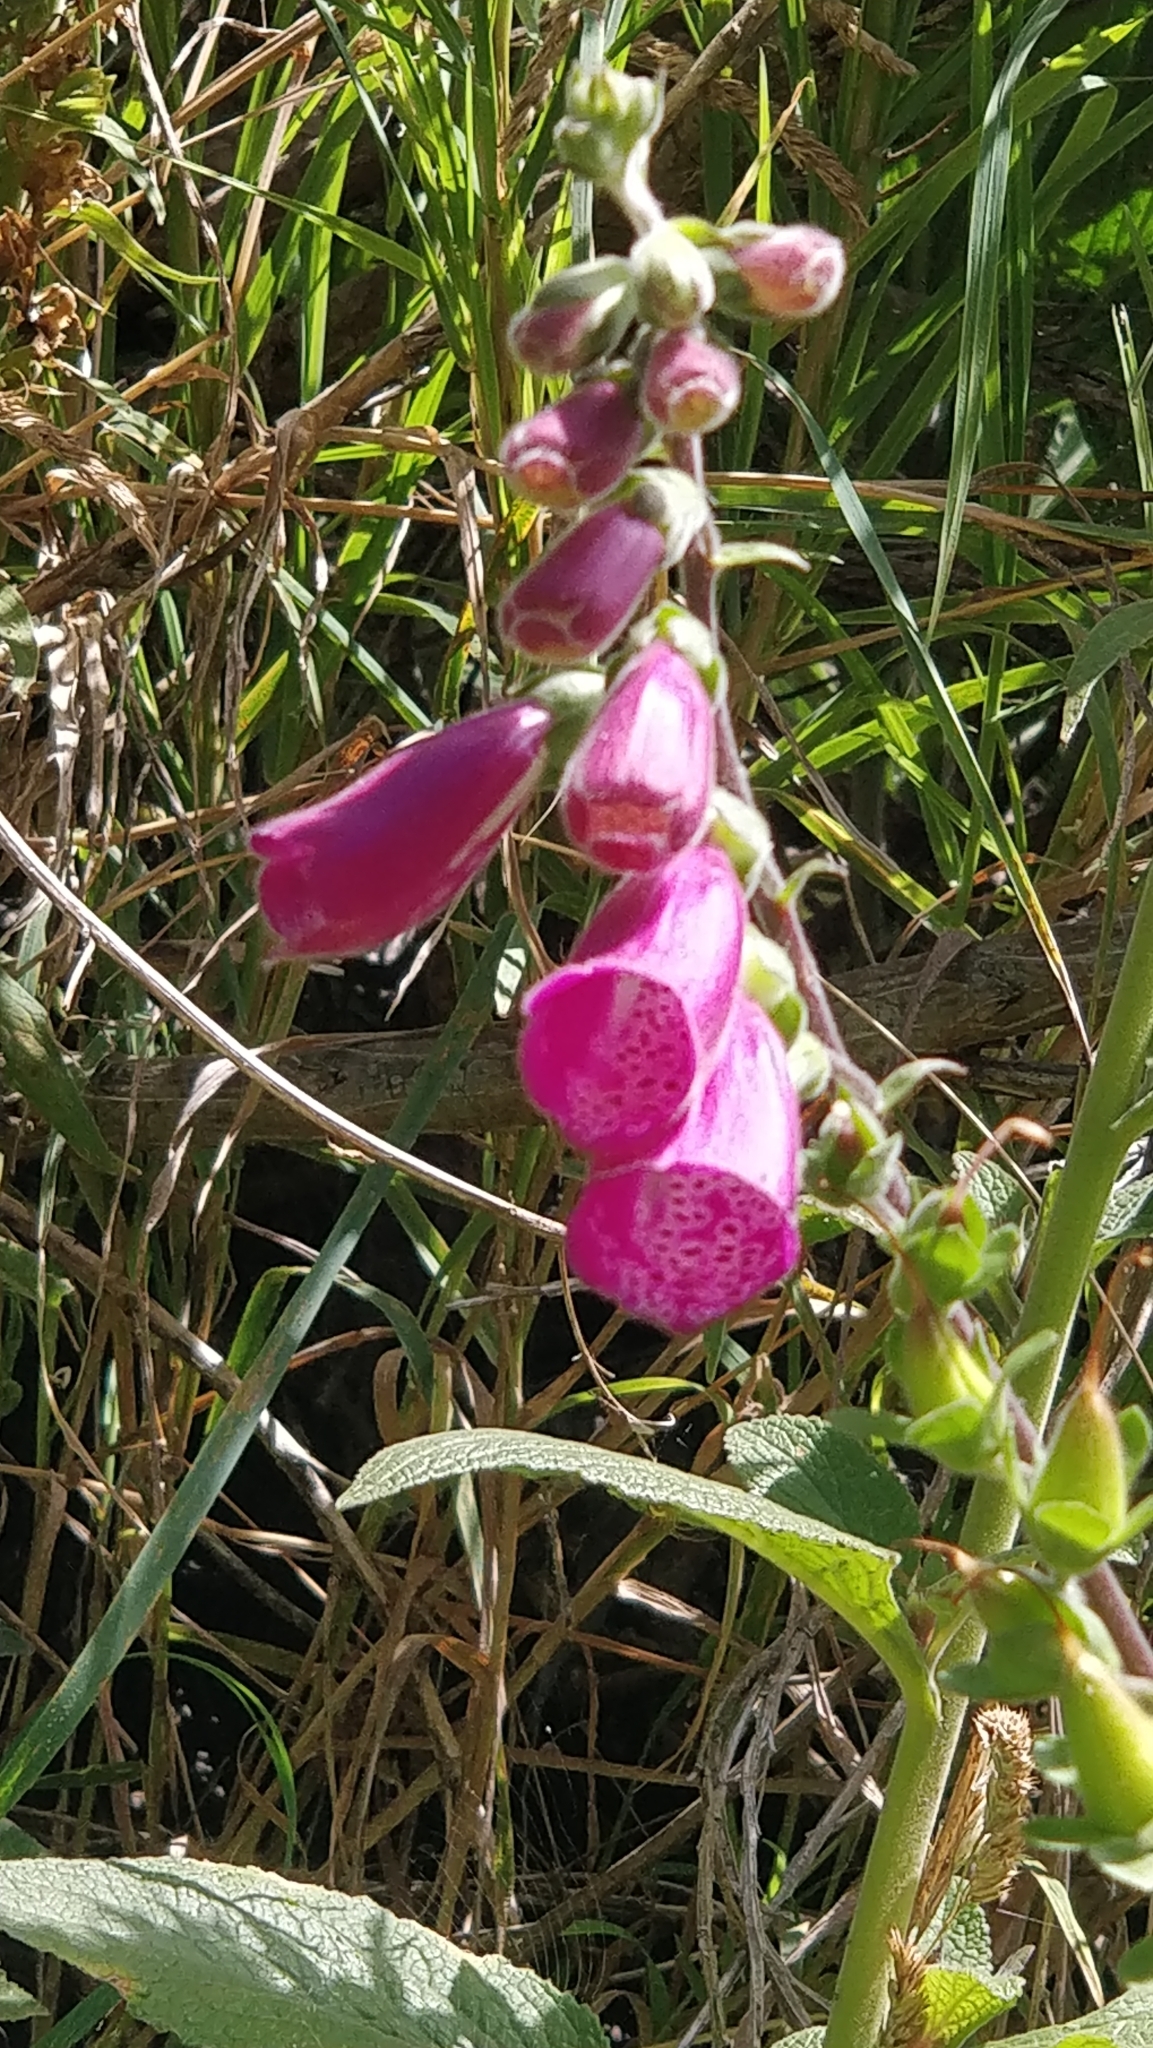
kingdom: Plantae
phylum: Tracheophyta
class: Magnoliopsida
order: Lamiales
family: Plantaginaceae
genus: Digitalis
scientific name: Digitalis purpurea
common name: Foxglove
